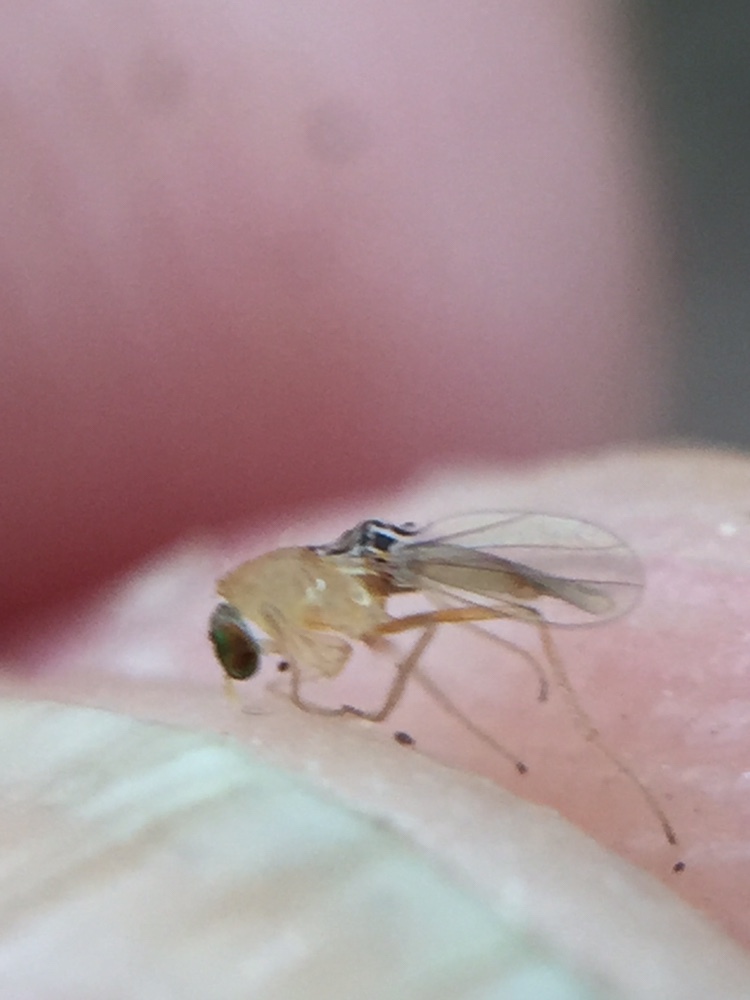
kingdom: Animalia
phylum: Arthropoda
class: Insecta
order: Diptera
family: Empididae
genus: Monodromia
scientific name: Monodromia fragilis
